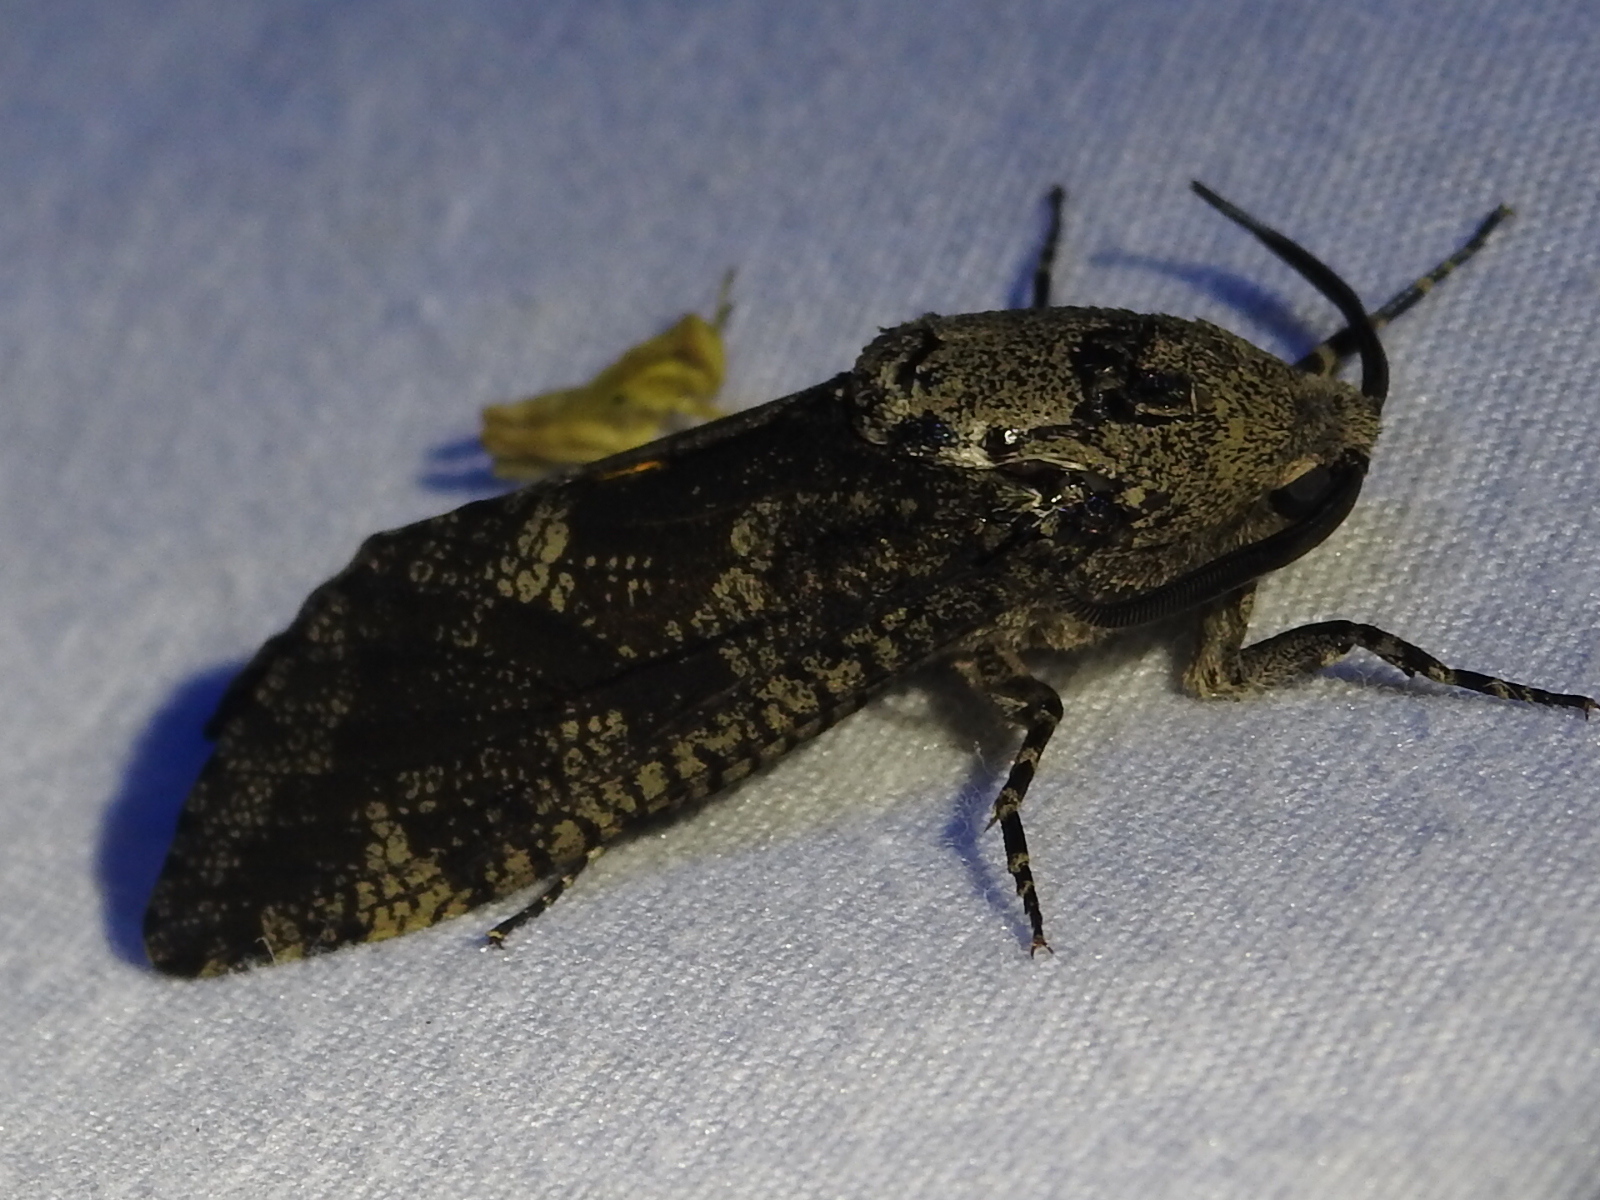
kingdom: Animalia
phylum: Arthropoda
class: Insecta
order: Lepidoptera
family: Cossidae
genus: Prionoxystus
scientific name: Prionoxystus robiniae
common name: Carpenterworm
